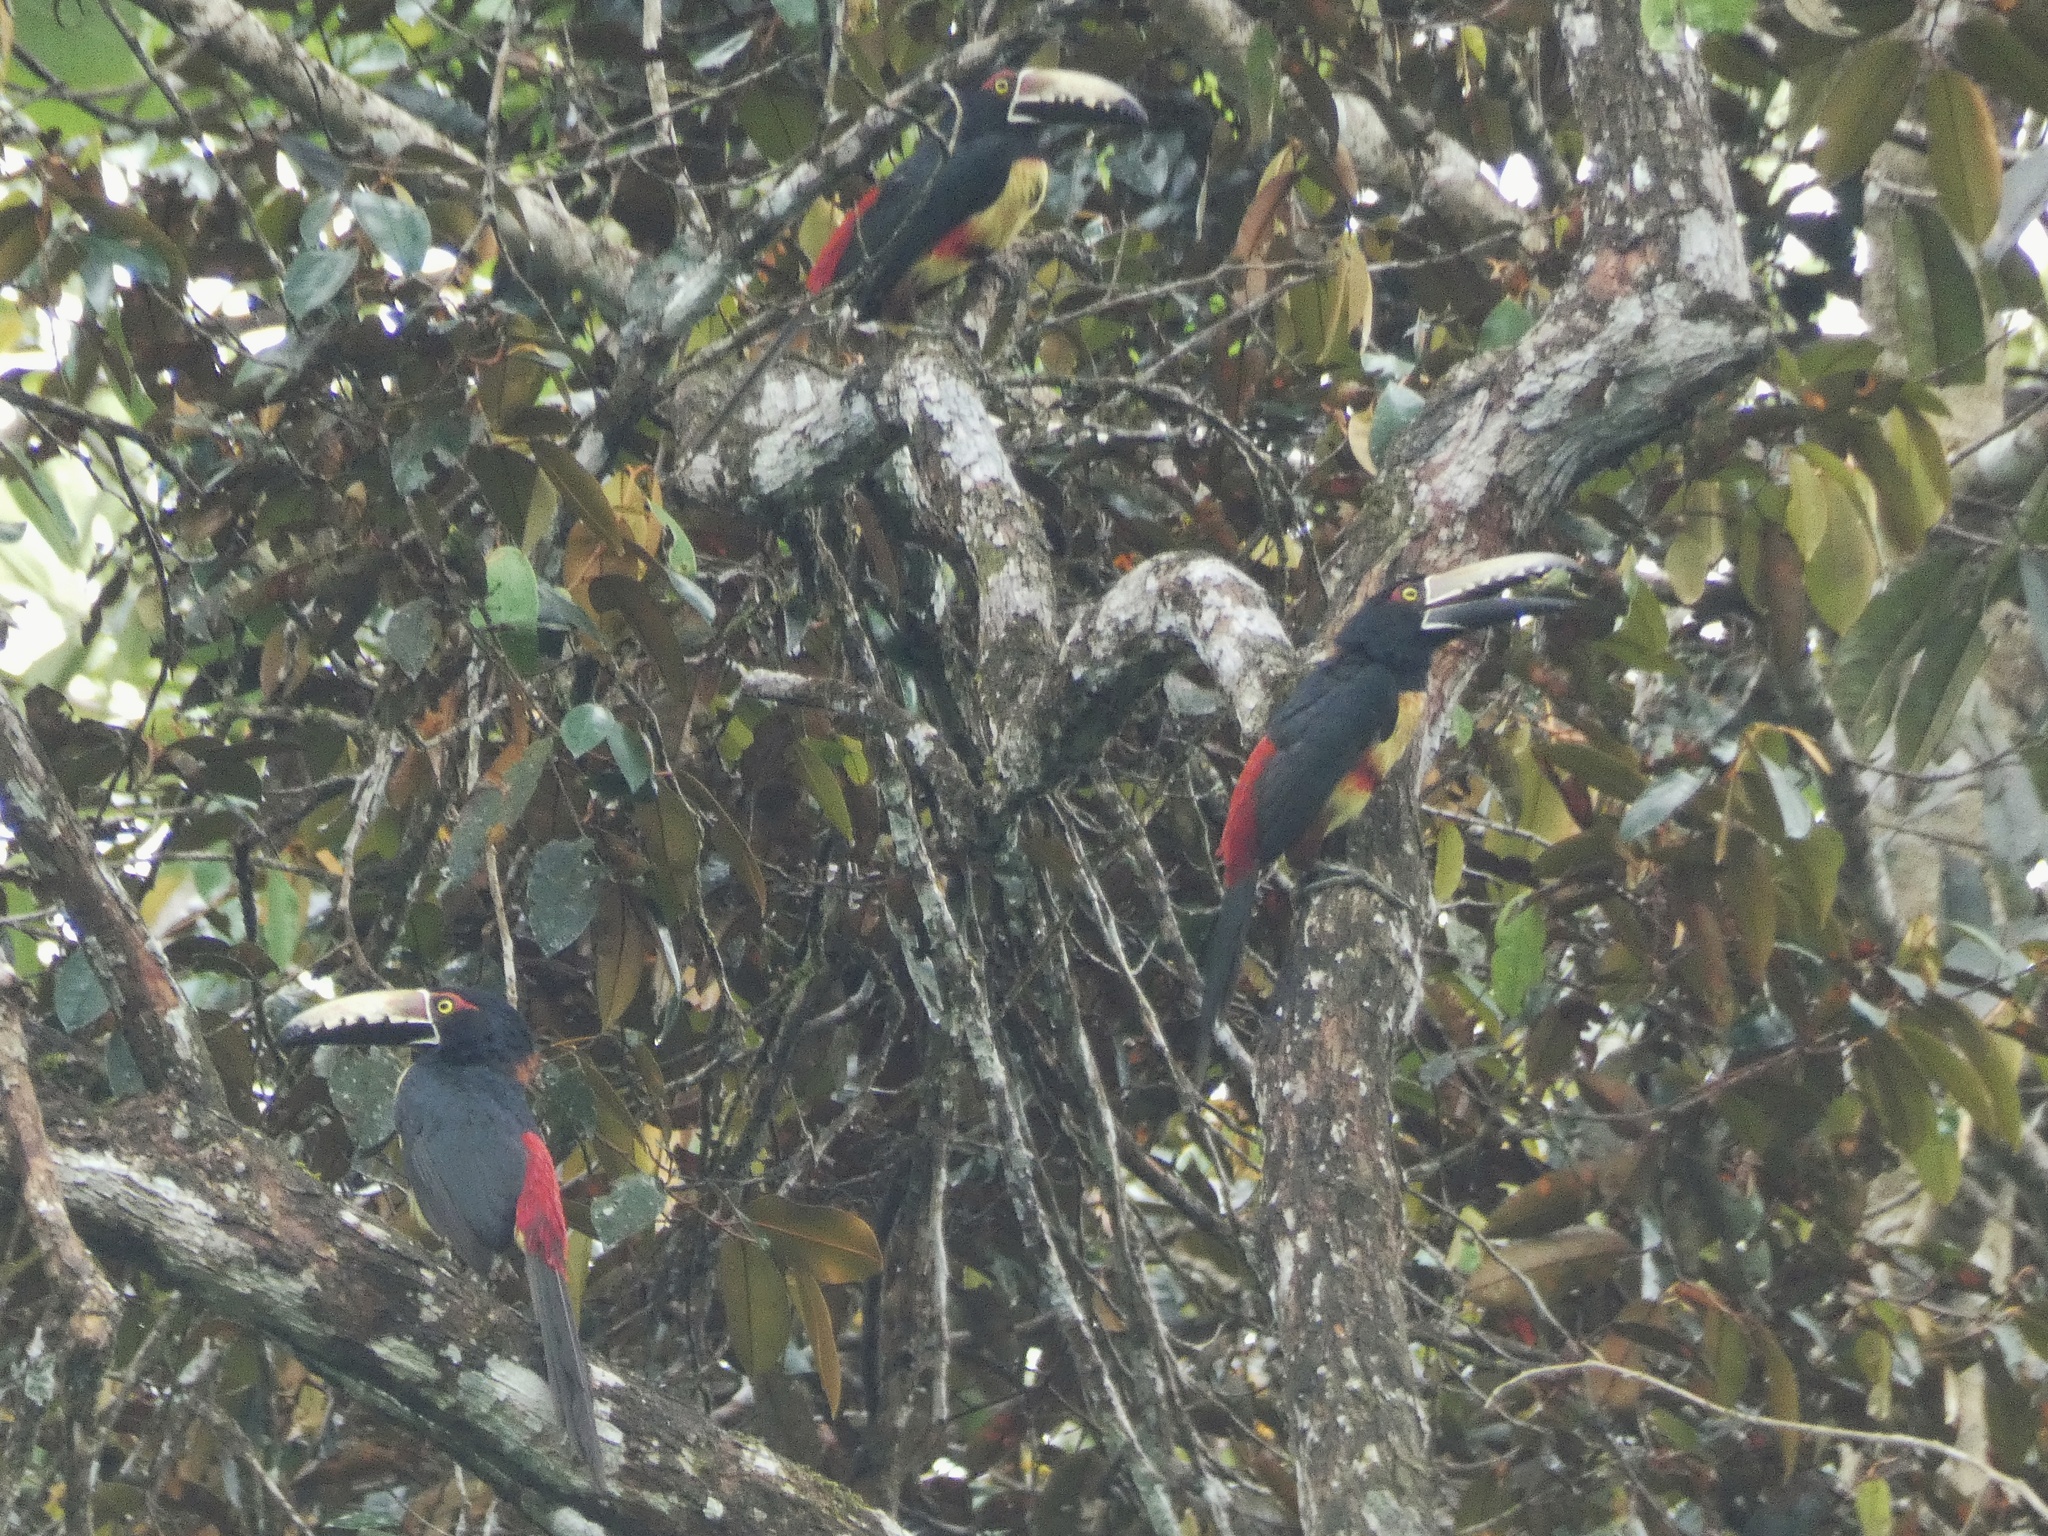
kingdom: Animalia
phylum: Chordata
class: Aves
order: Piciformes
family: Ramphastidae
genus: Pteroglossus
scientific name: Pteroglossus torquatus
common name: Collared aracari
